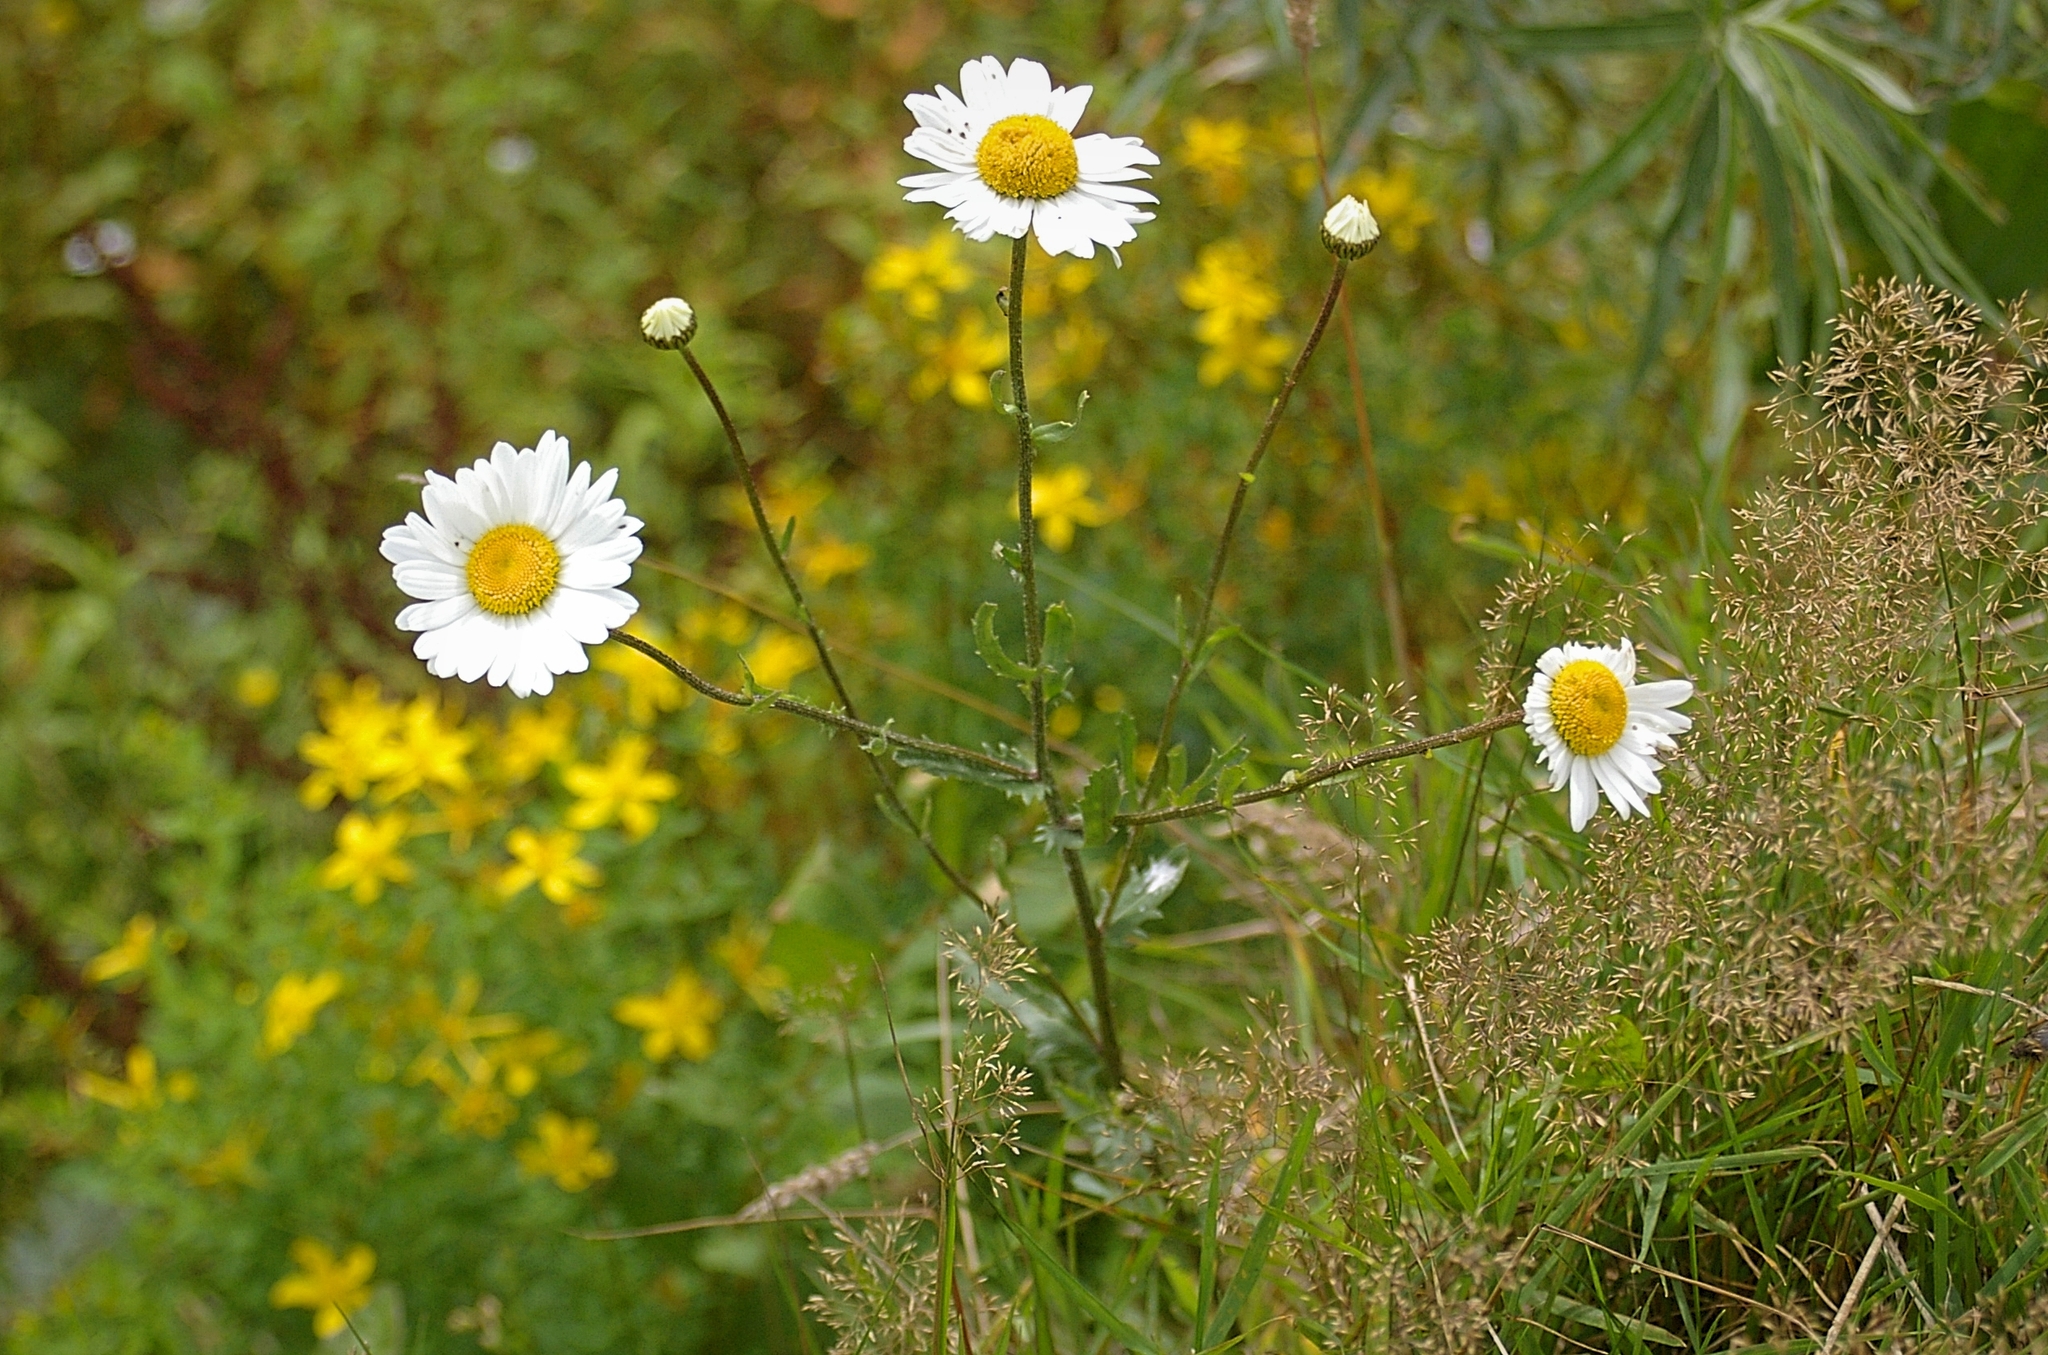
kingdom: Plantae
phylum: Tracheophyta
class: Magnoliopsida
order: Asterales
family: Asteraceae
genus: Leucanthemum
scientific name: Leucanthemum vulgare
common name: Oxeye daisy
